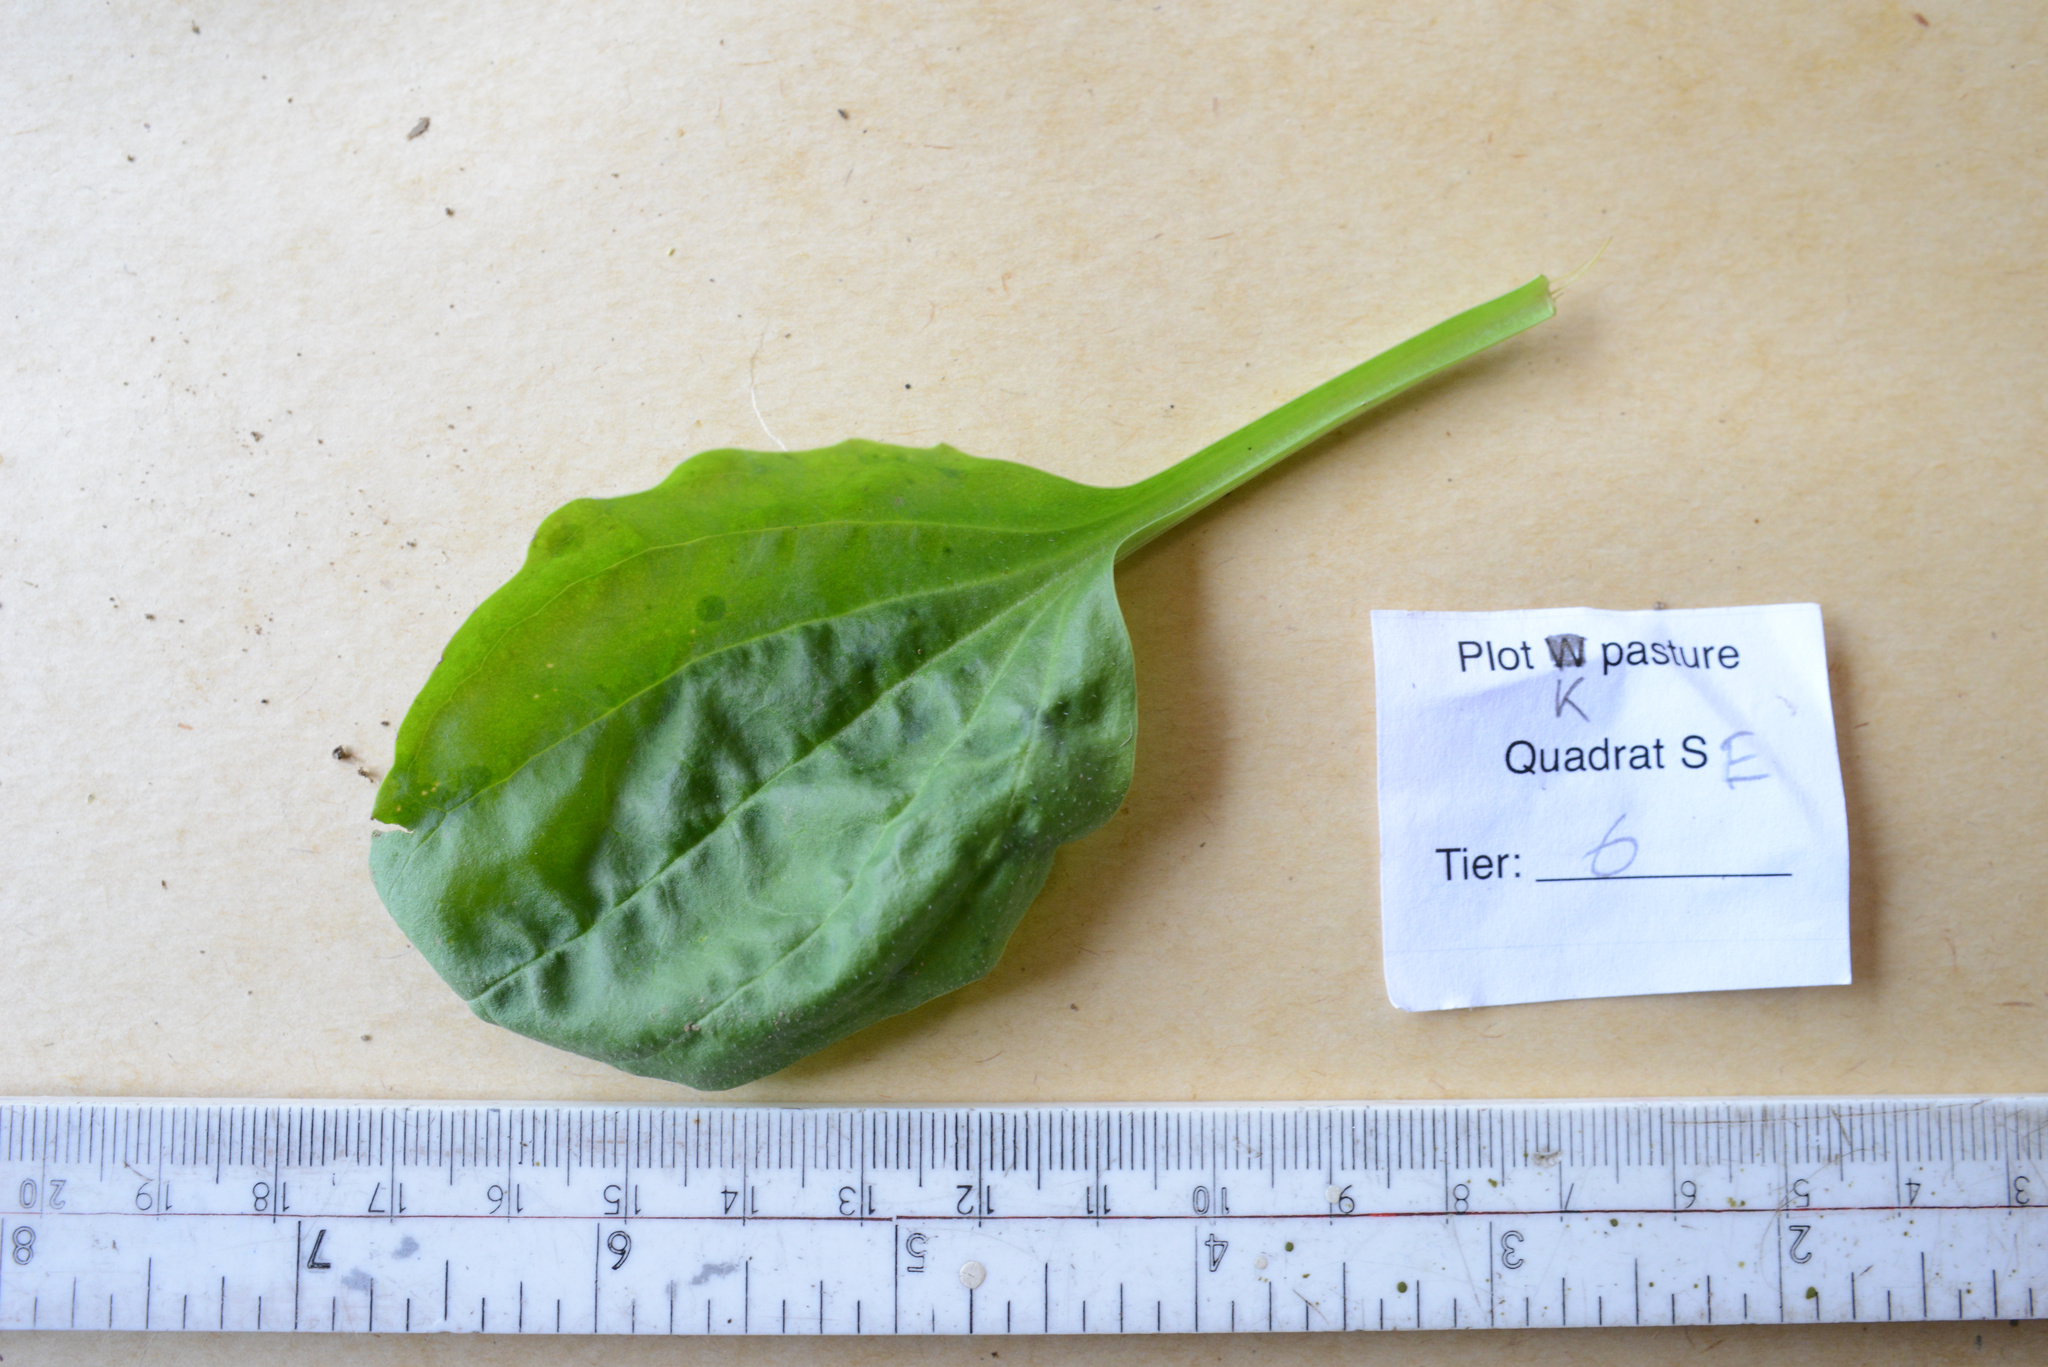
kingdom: Plantae
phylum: Tracheophyta
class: Magnoliopsida
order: Lamiales
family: Plantaginaceae
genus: Plantago
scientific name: Plantago major
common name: Common plantain
